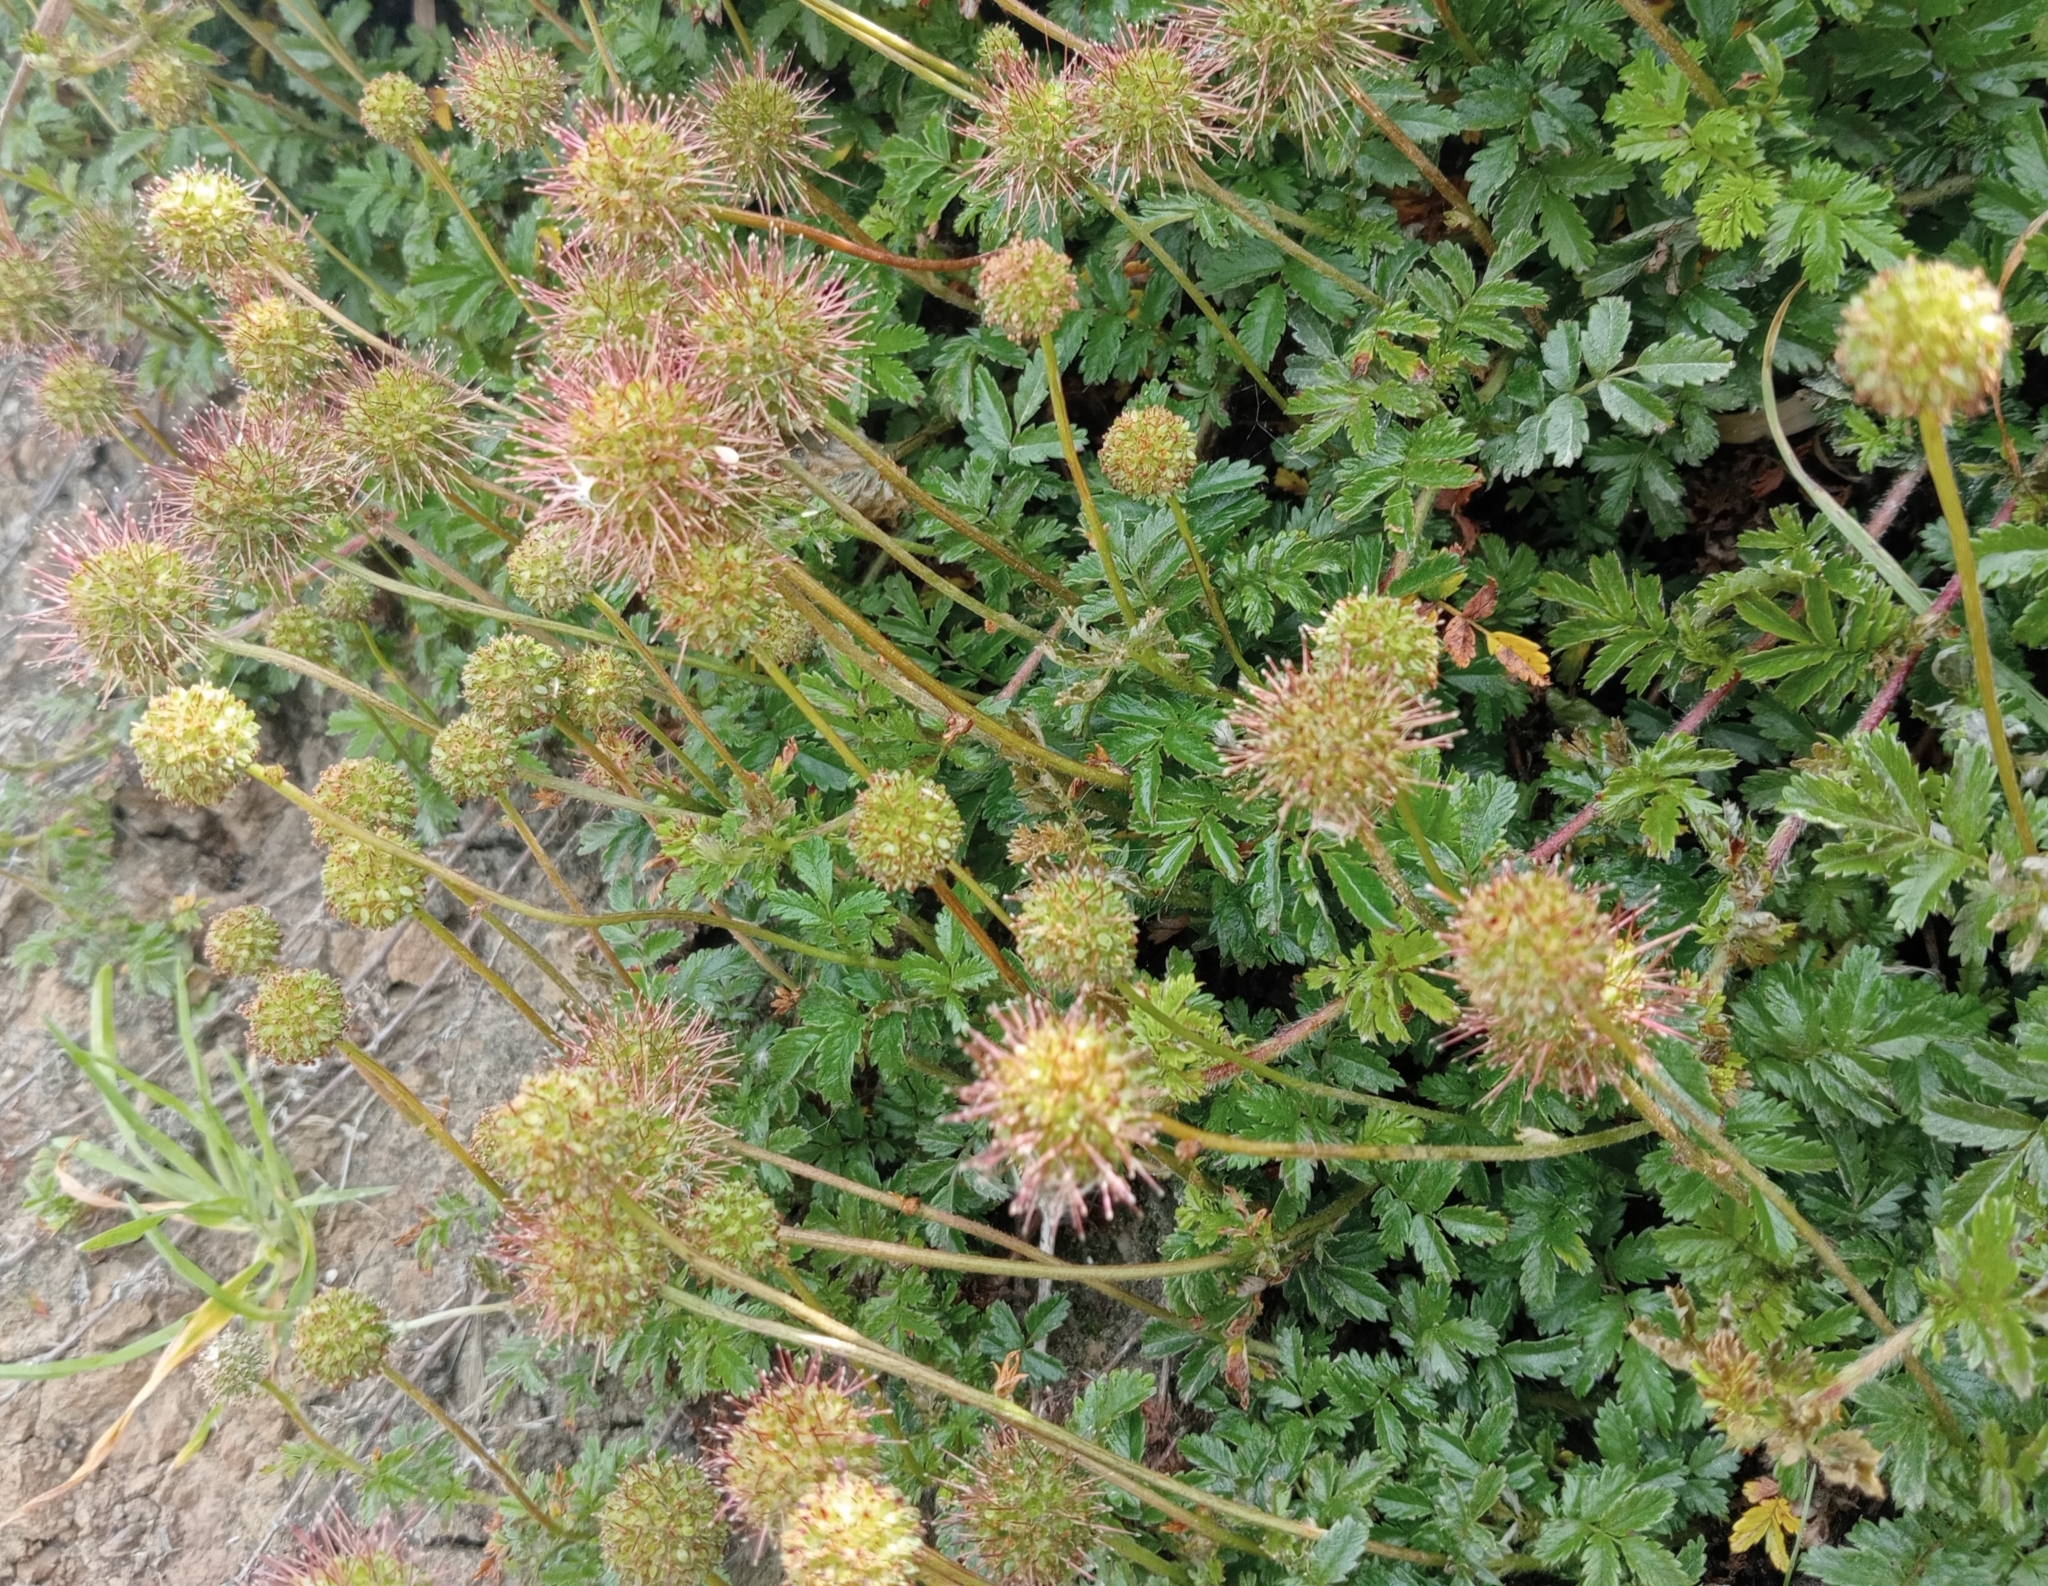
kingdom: Plantae
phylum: Tracheophyta
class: Magnoliopsida
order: Rosales
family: Rosaceae
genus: Acaena
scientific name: Acaena novae-zelandiae
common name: Pirri-pirri-bur
